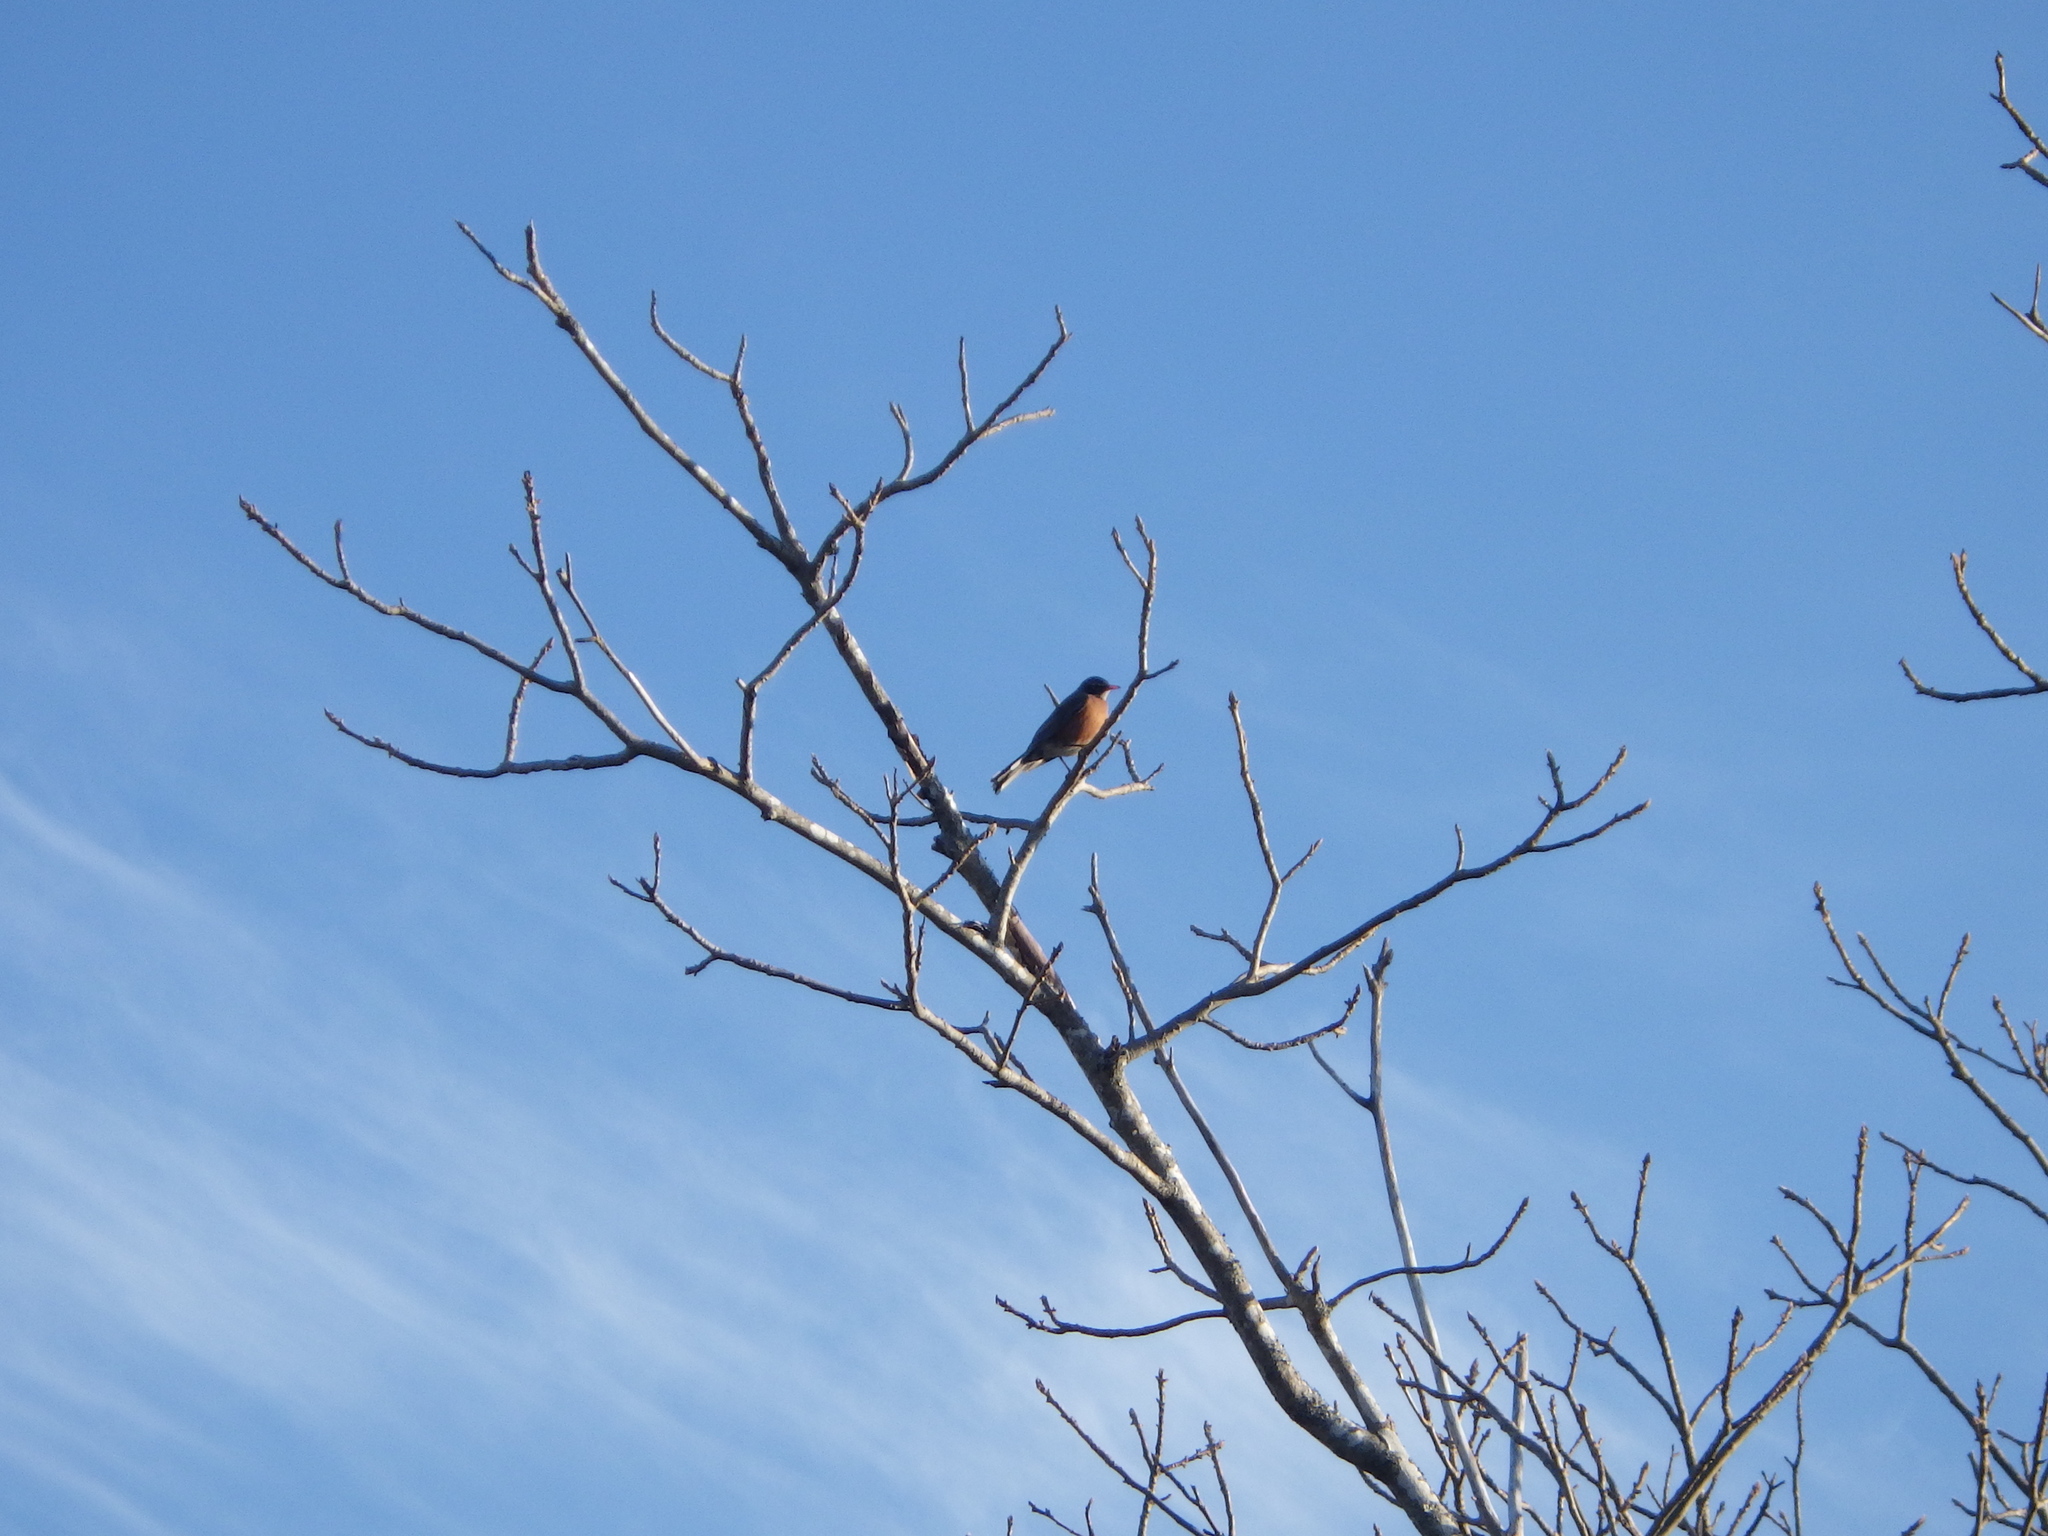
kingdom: Animalia
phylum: Chordata
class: Aves
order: Passeriformes
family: Turdidae
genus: Turdus
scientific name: Turdus migratorius
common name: American robin
